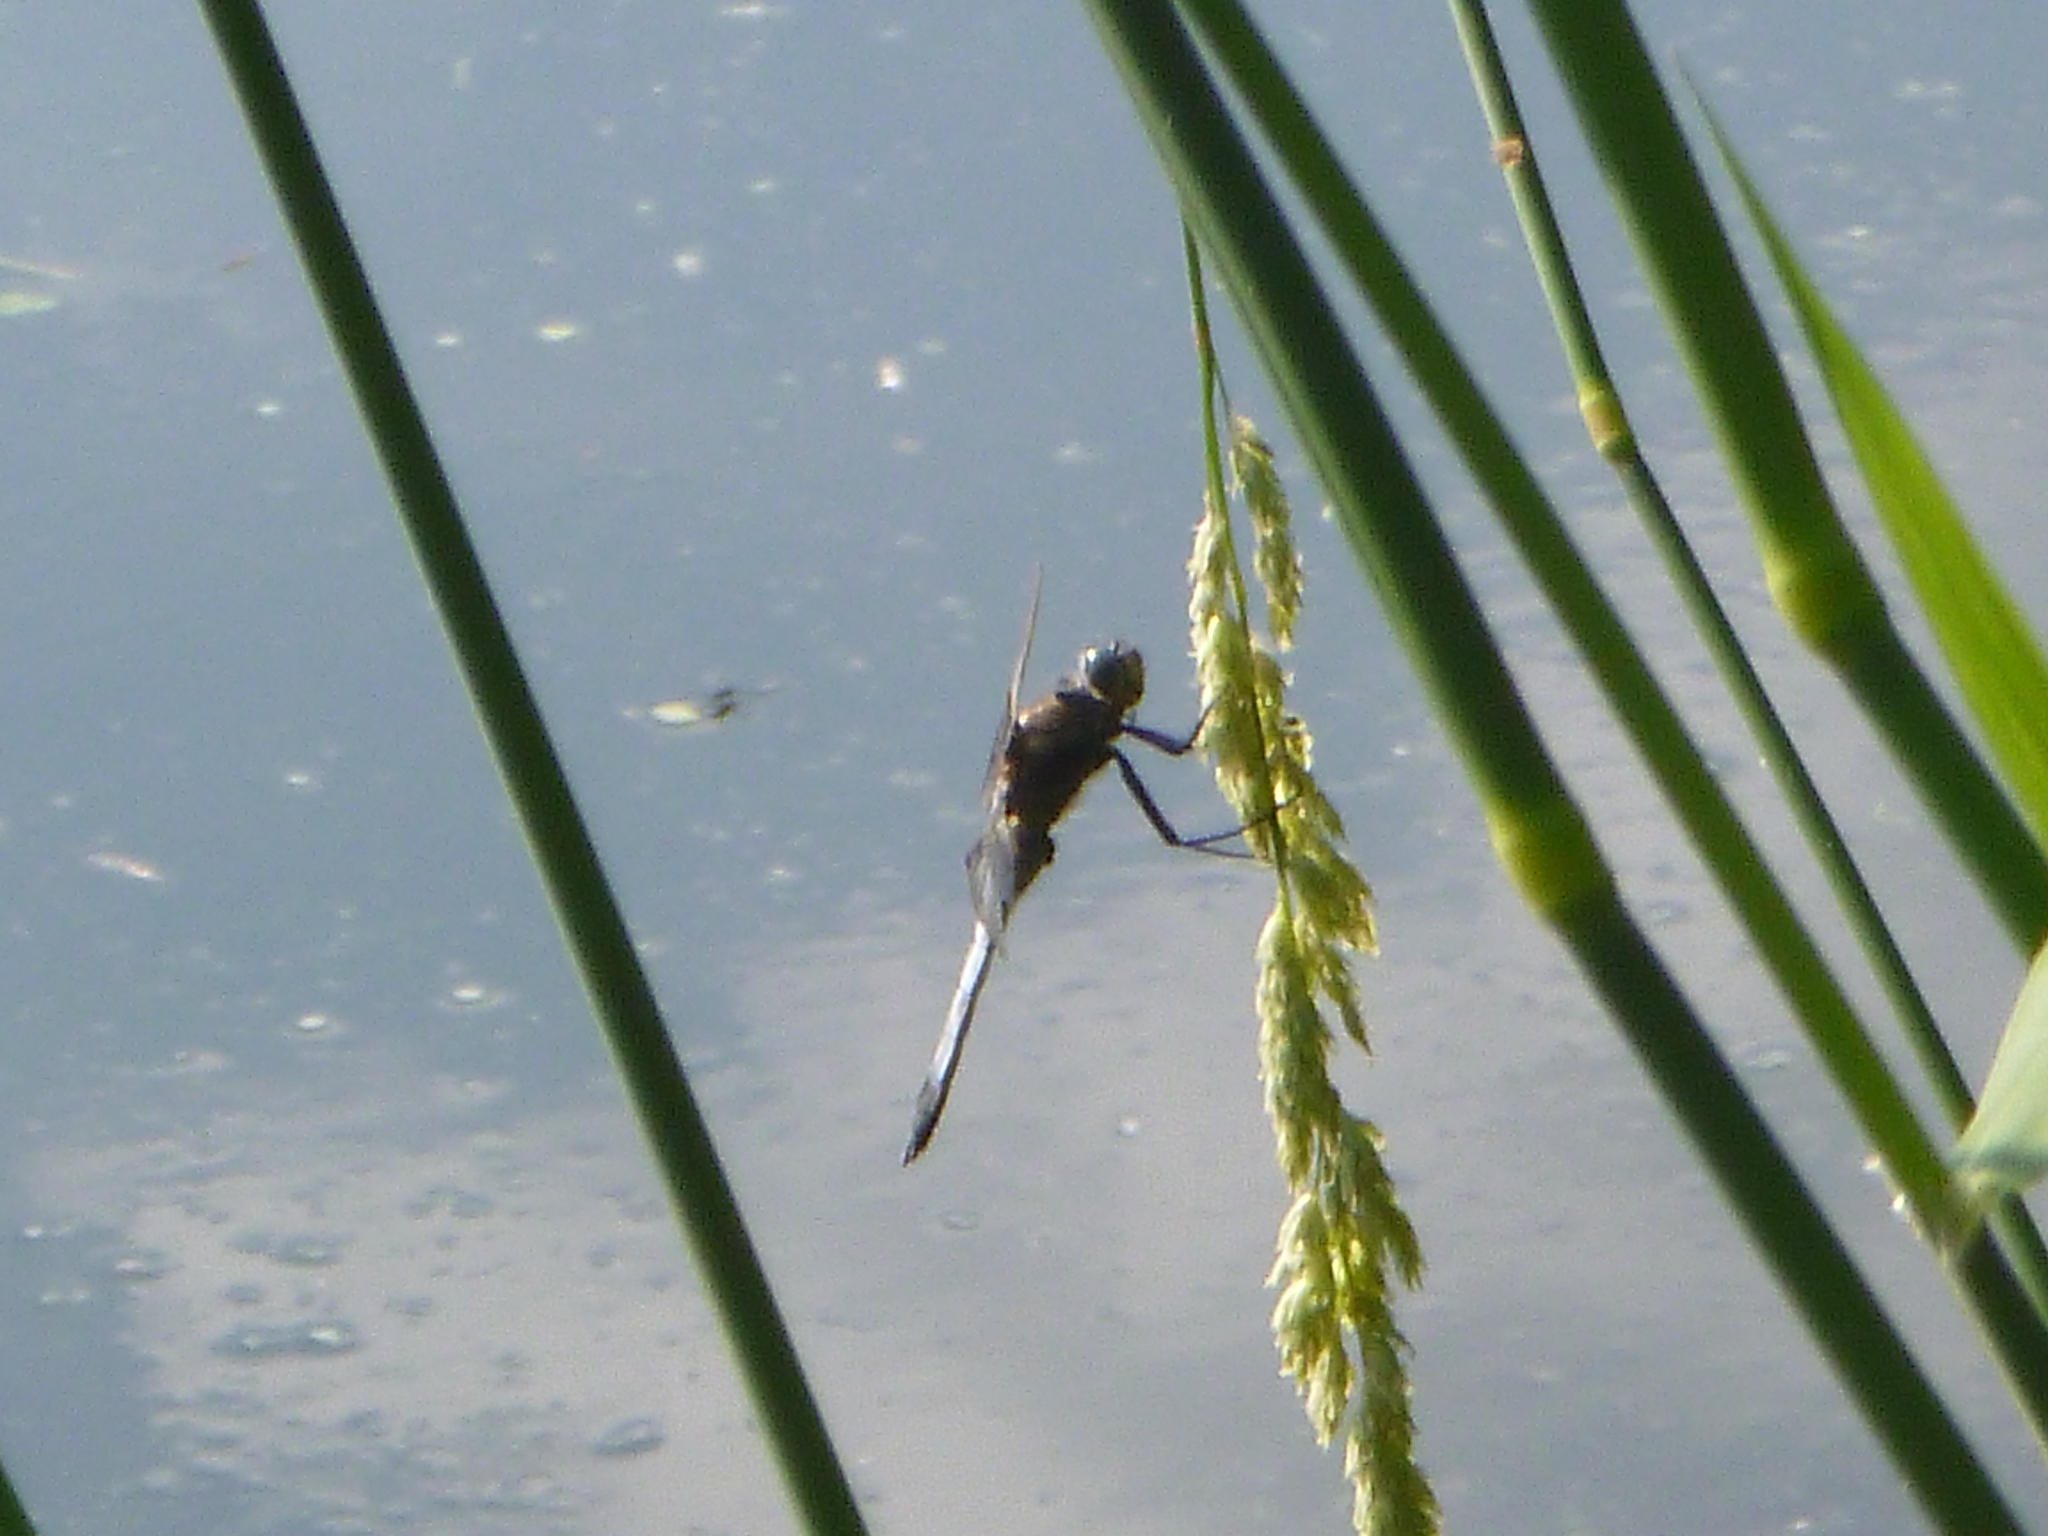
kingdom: Animalia
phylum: Arthropoda
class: Insecta
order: Odonata
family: Libellulidae
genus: Orthetrum
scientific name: Orthetrum cancellatum
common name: Black-tailed skimmer
